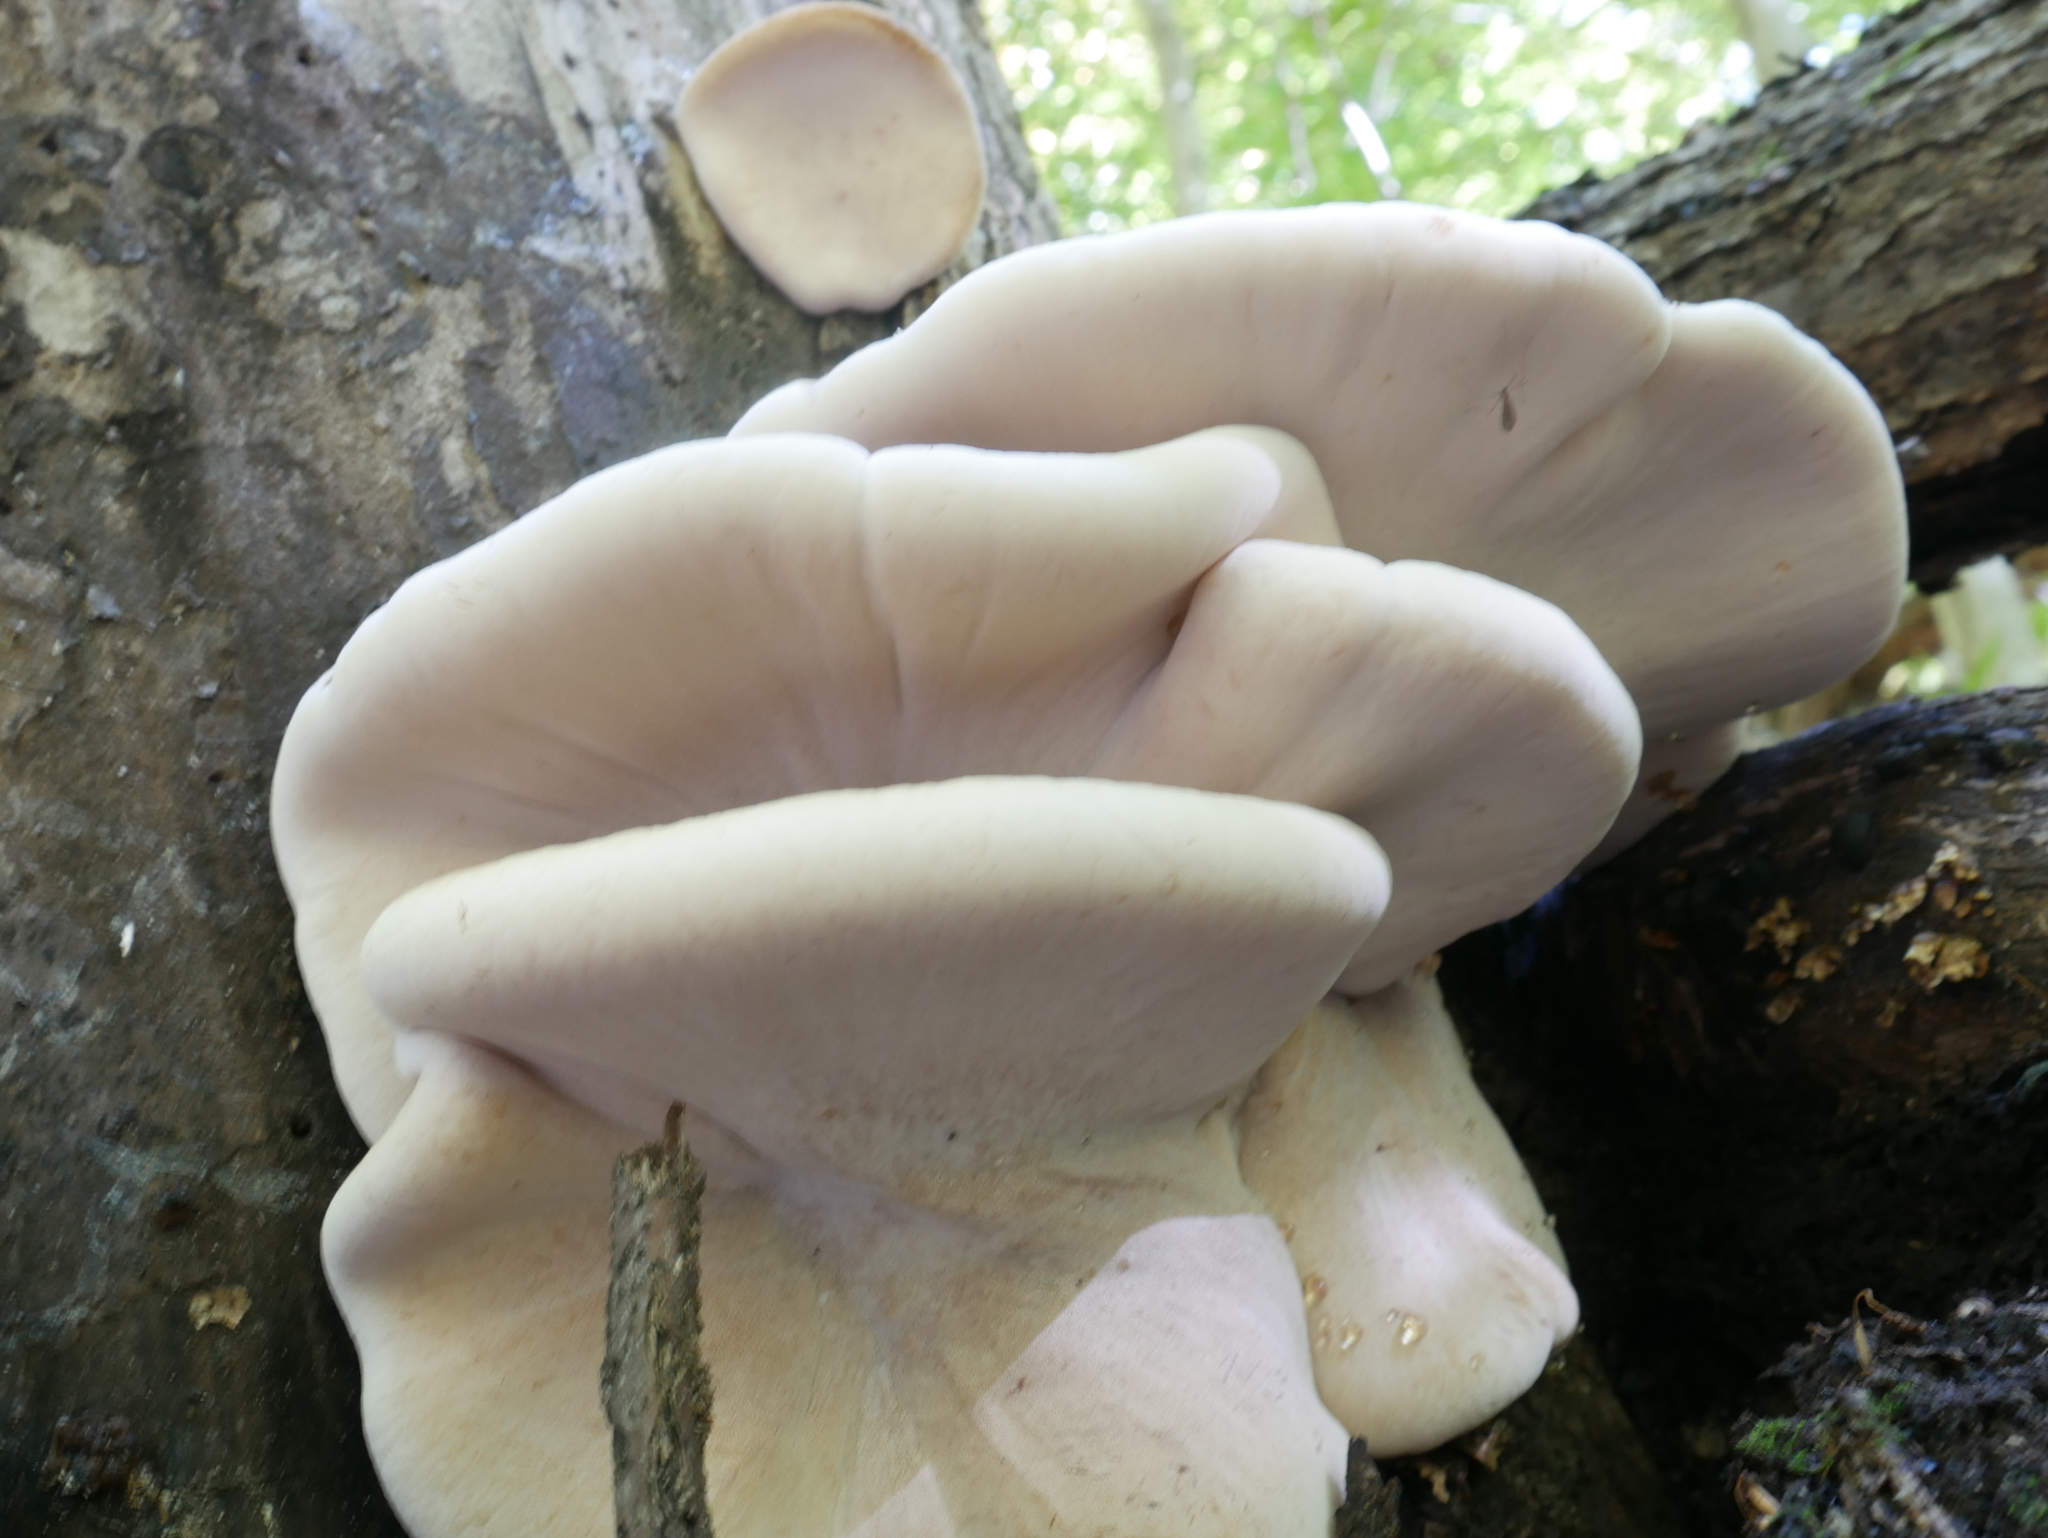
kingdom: Fungi
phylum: Basidiomycota
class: Agaricomycetes
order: Polyporales
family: Ischnodermataceae
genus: Ischnoderma
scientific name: Ischnoderma resinosum
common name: Resinous polypore
